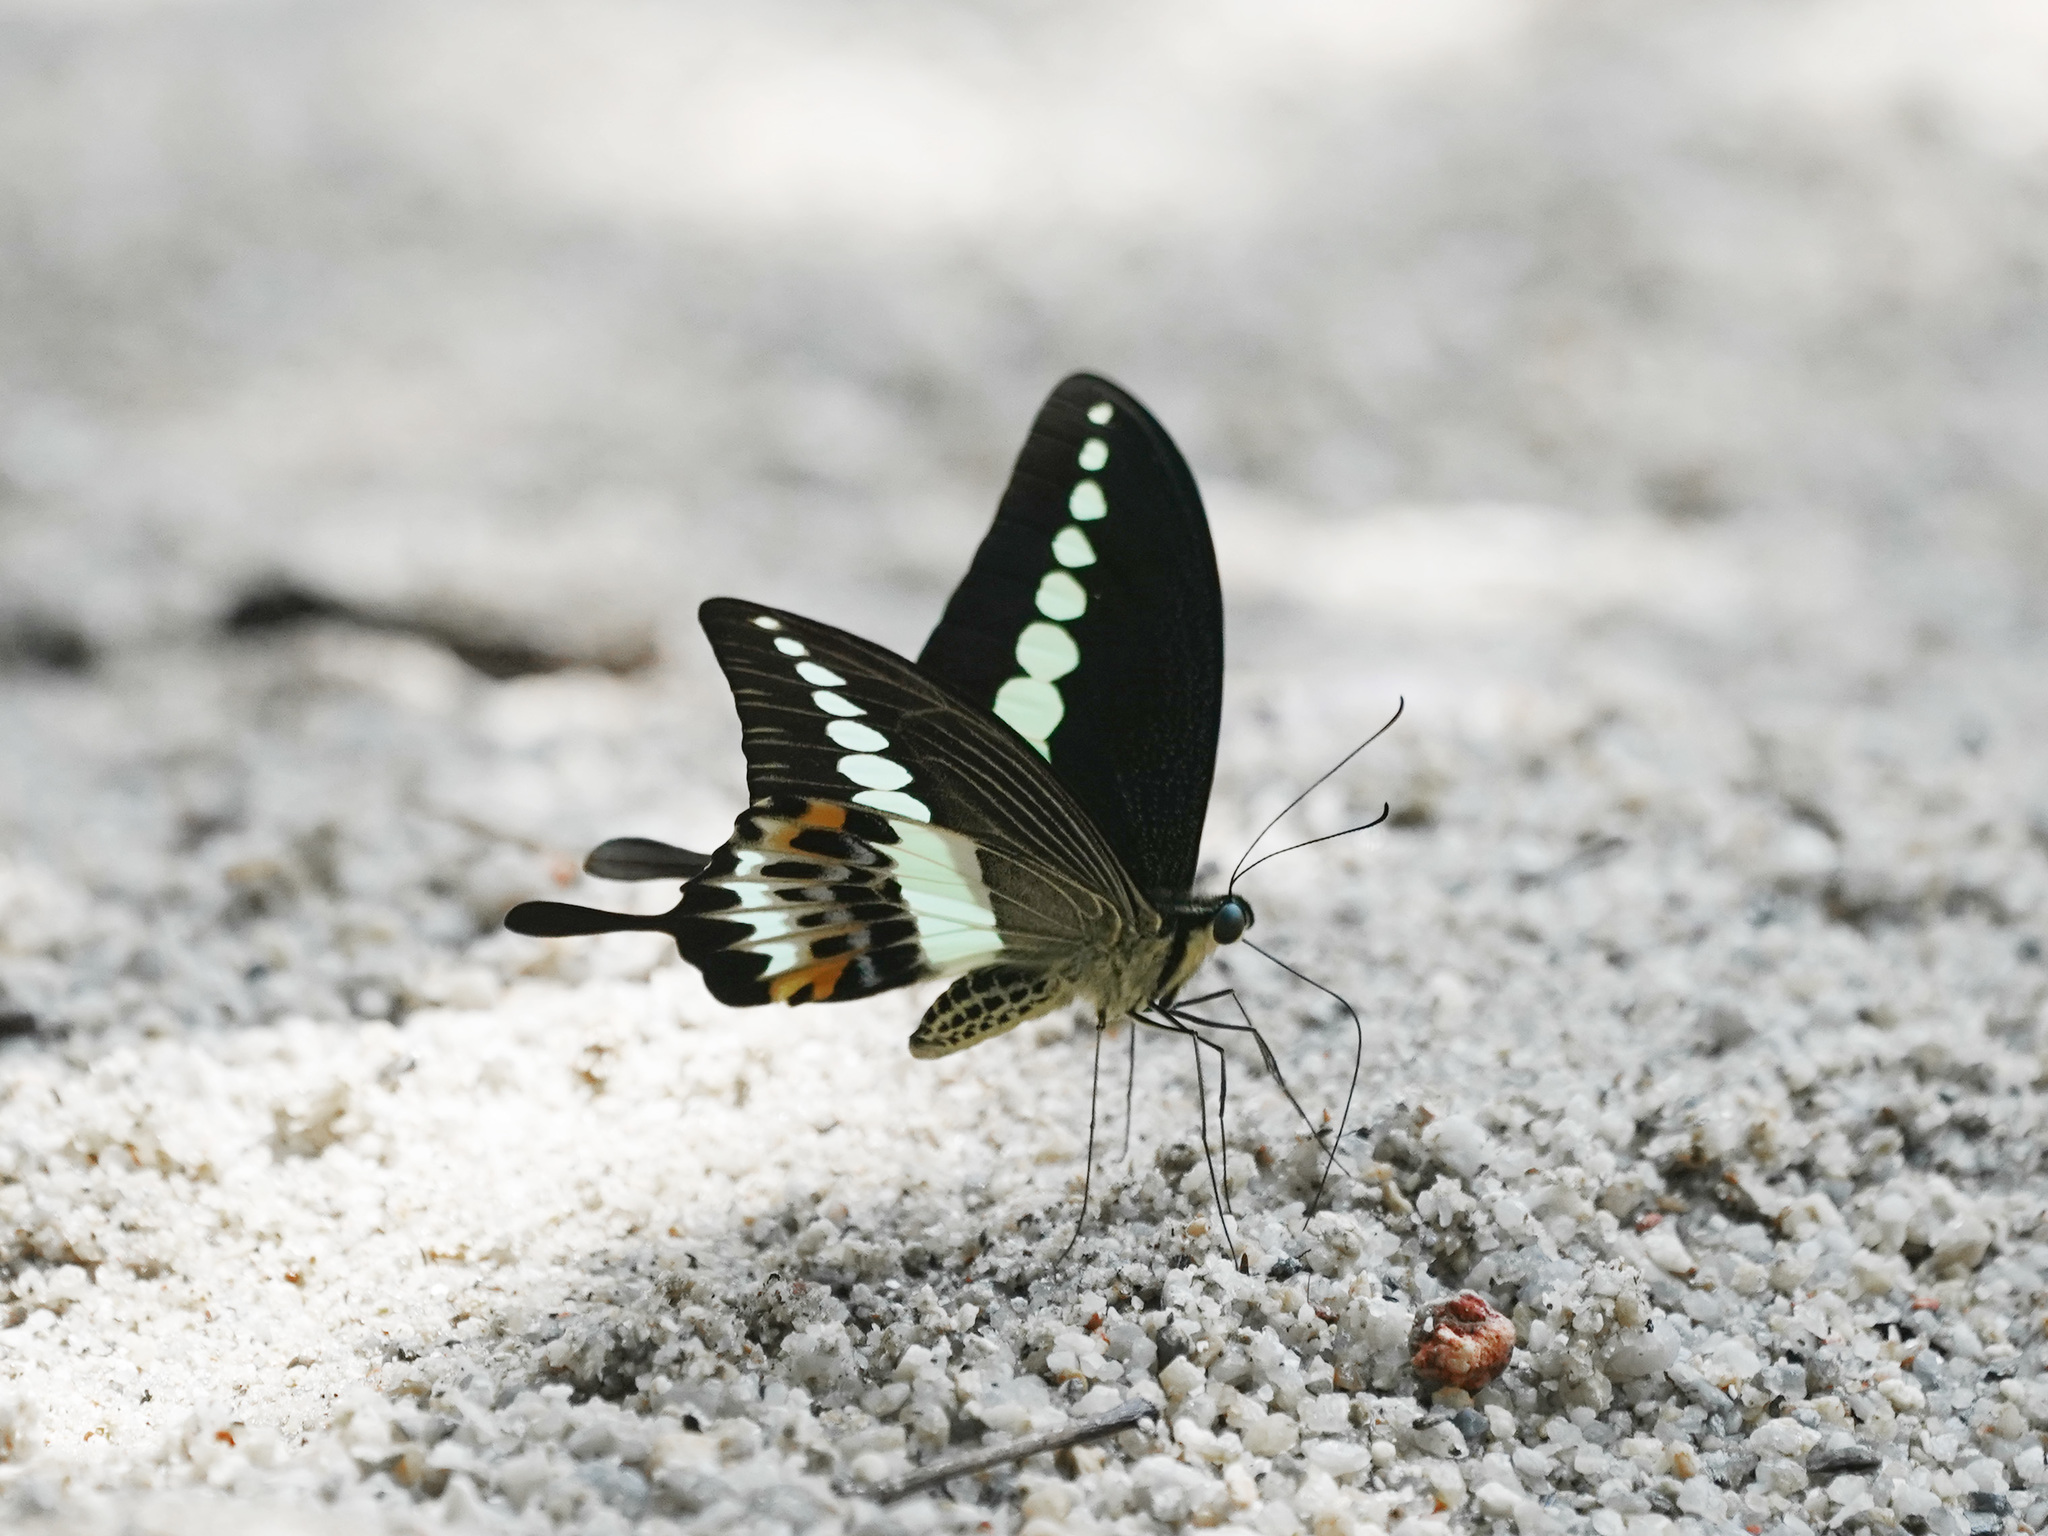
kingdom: Animalia
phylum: Arthropoda
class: Insecta
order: Lepidoptera
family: Papilionidae
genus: Papilio
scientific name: Papilio demolion
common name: Banded swallowtail
